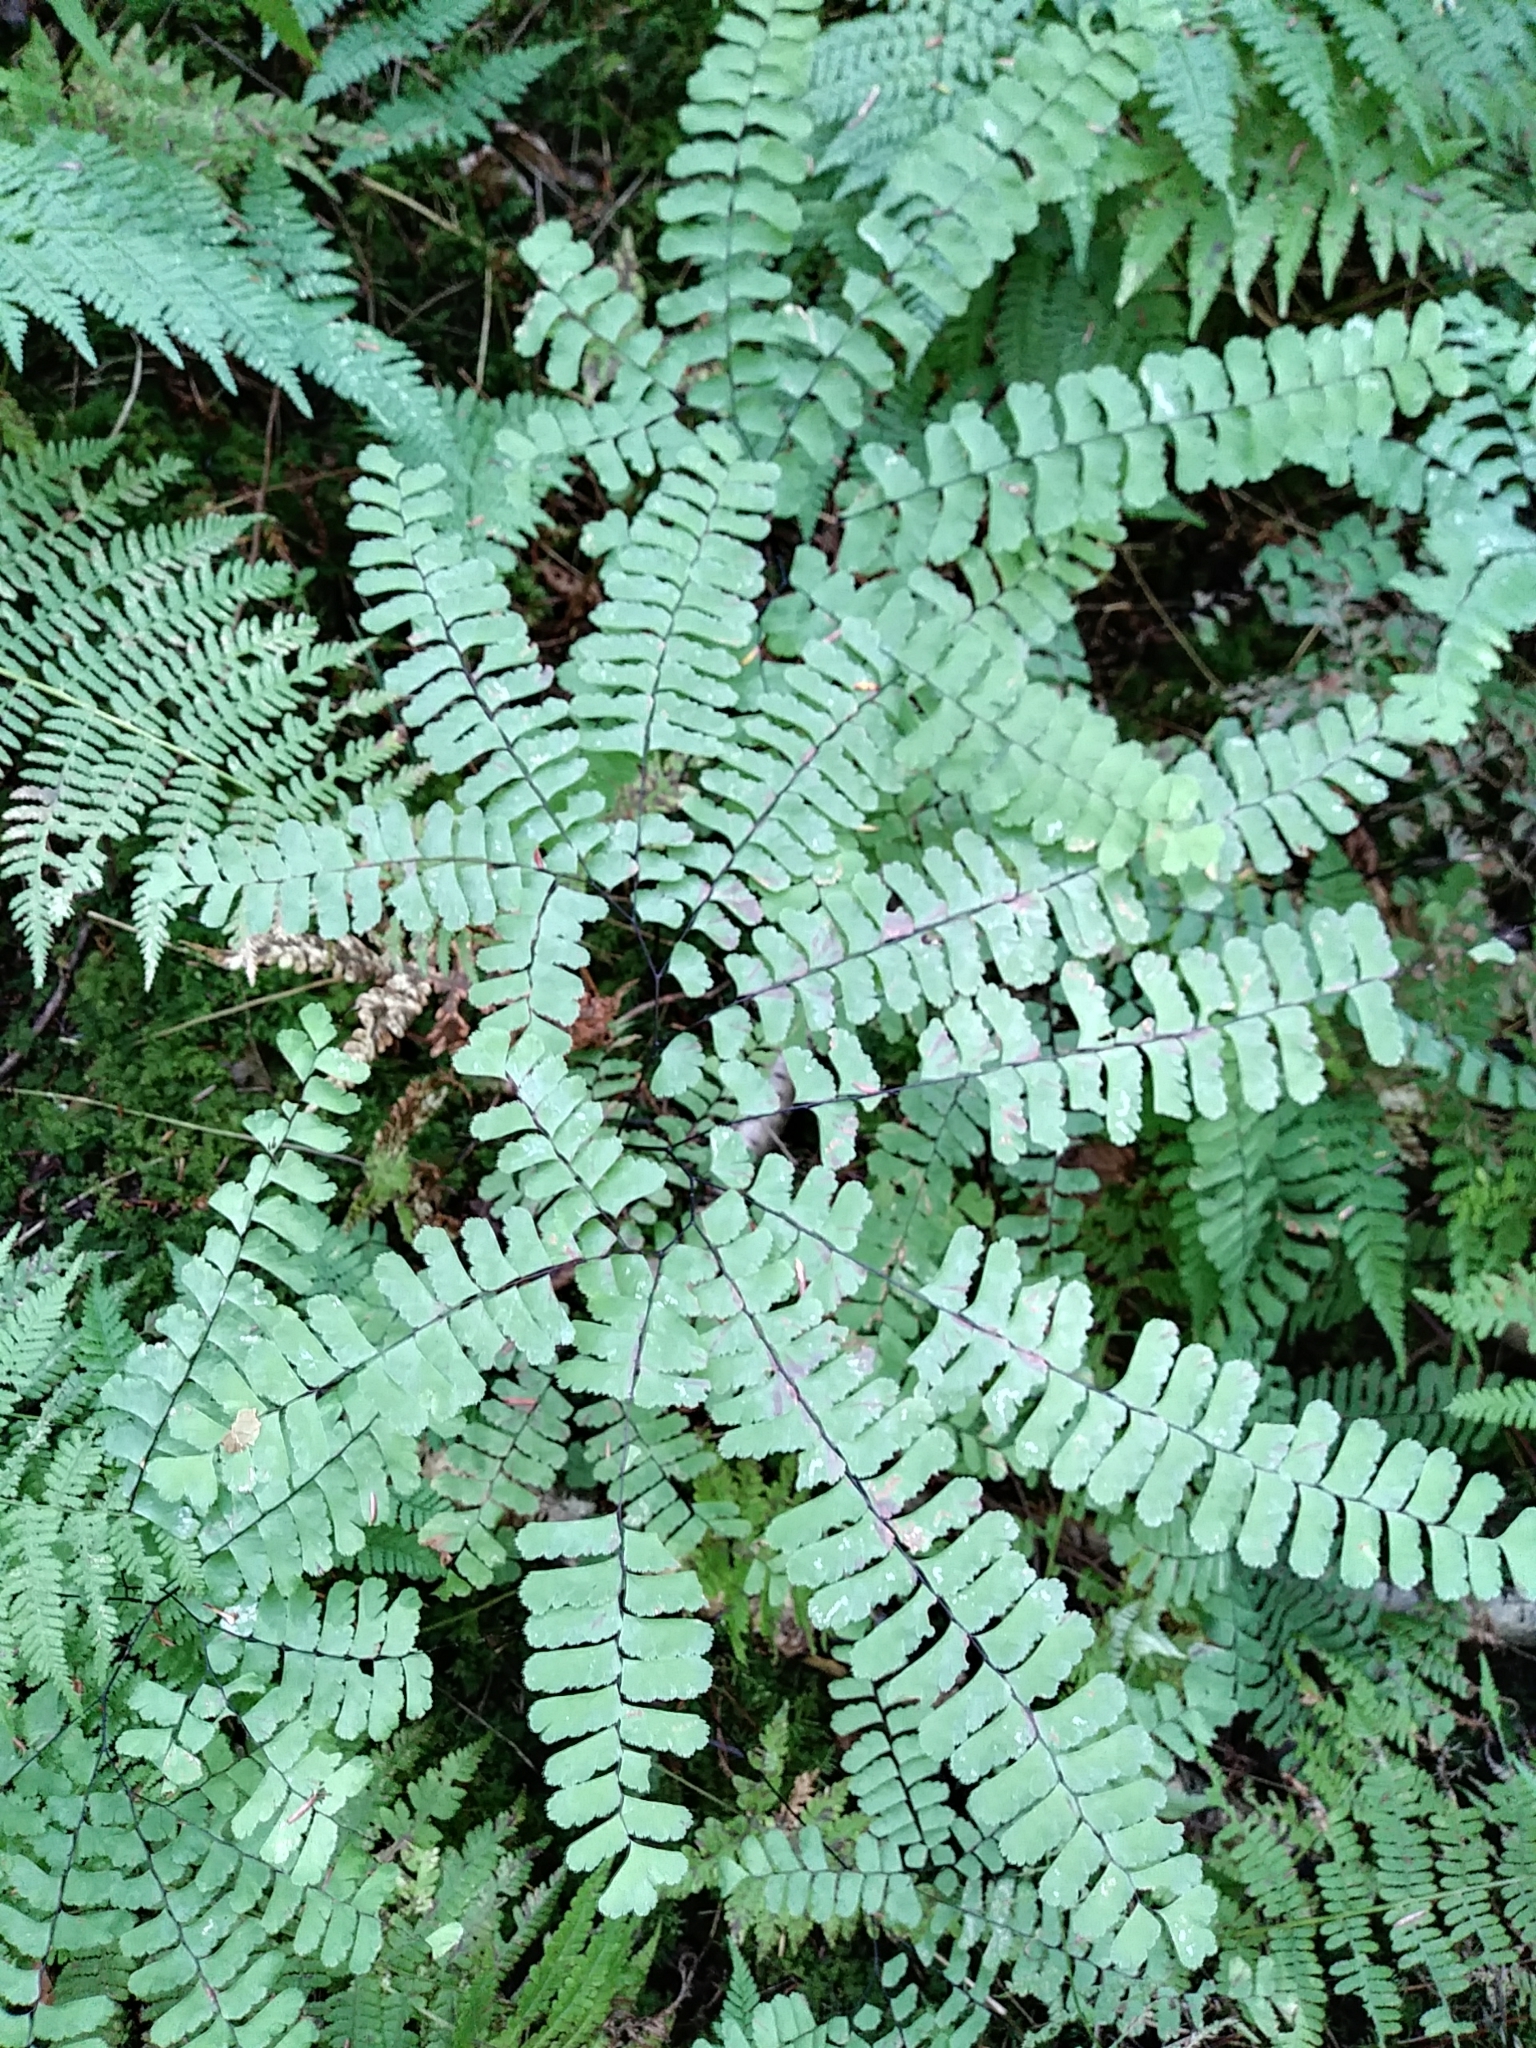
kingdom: Plantae
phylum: Tracheophyta
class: Polypodiopsida
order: Polypodiales
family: Pteridaceae
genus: Adiantum
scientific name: Adiantum pedatum
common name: Five-finger fern
